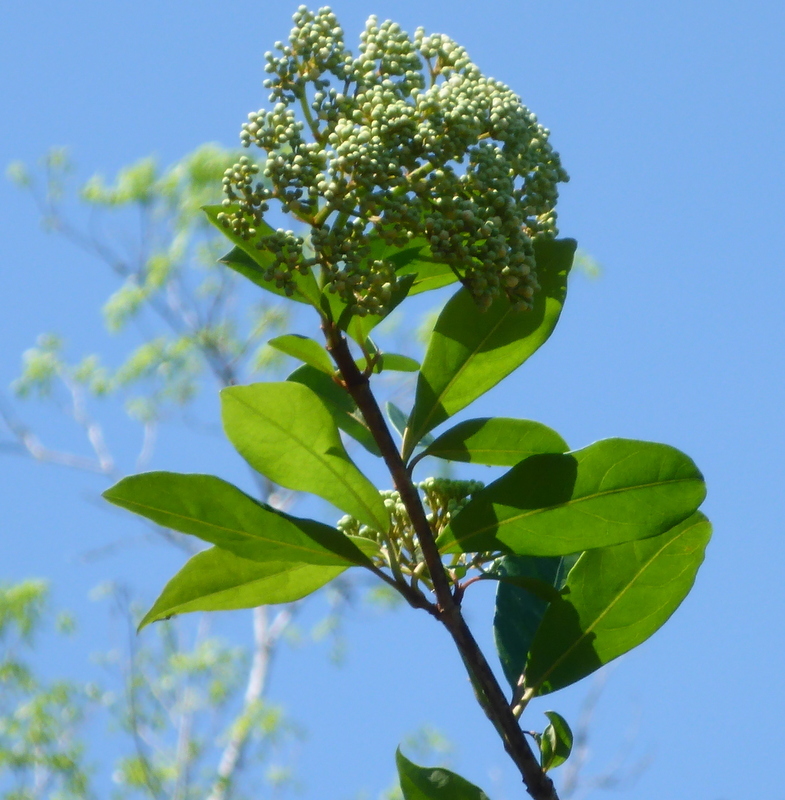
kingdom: Plantae
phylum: Tracheophyta
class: Magnoliopsida
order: Dipsacales
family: Viburnaceae
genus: Viburnum
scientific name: Viburnum nudum
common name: Possum haw
